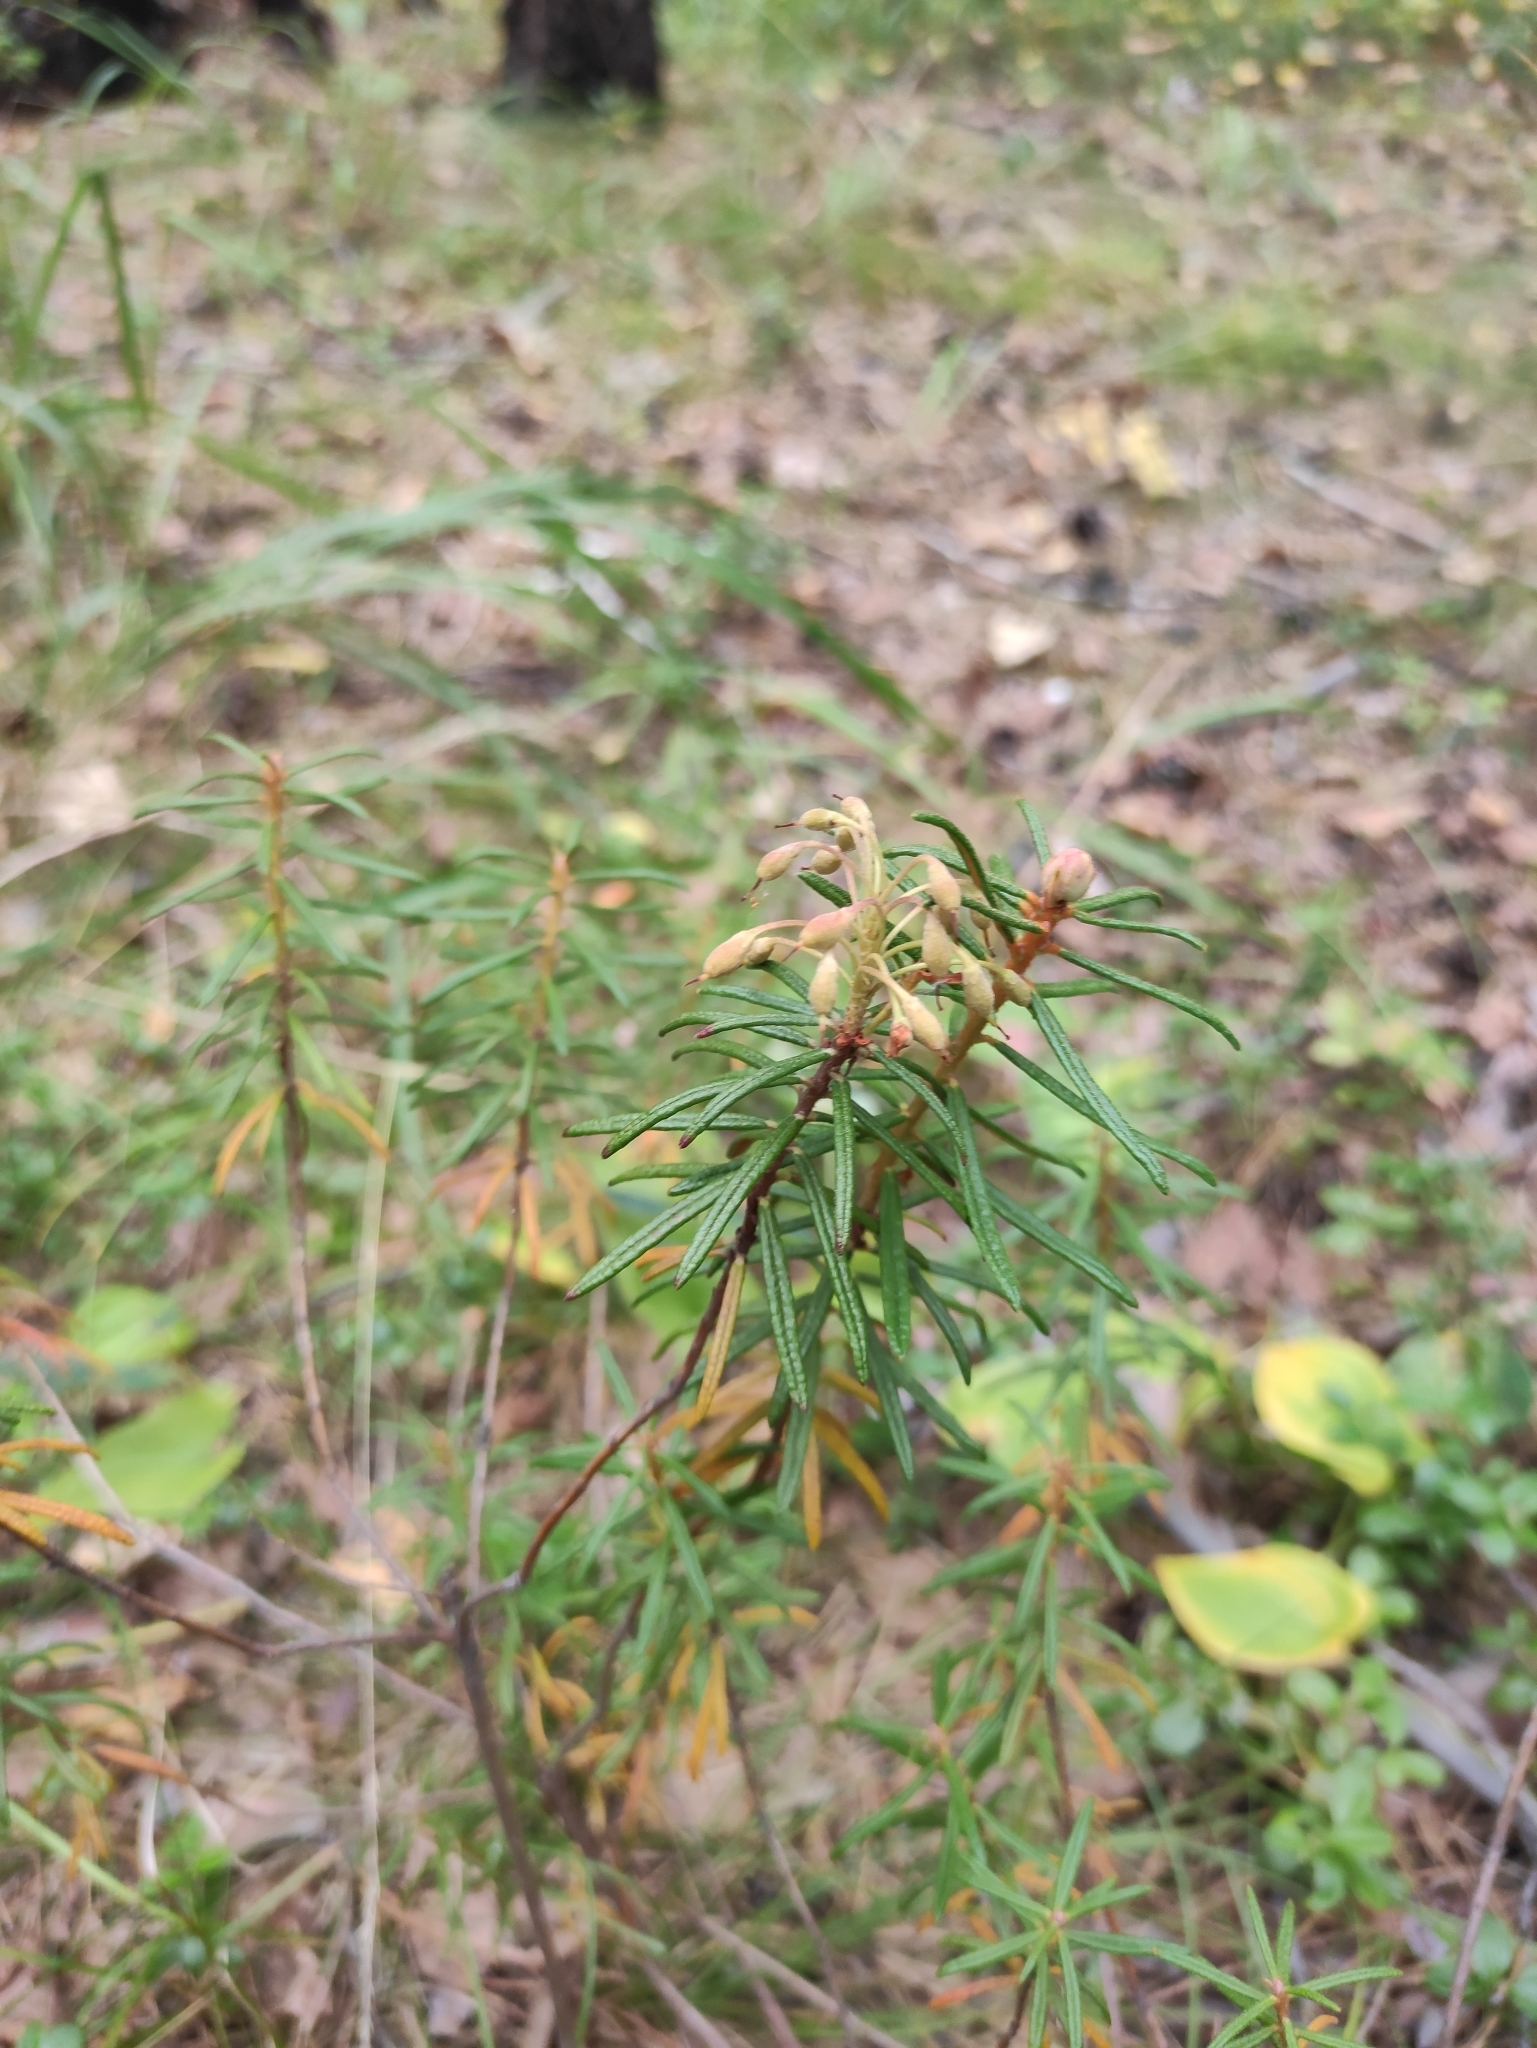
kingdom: Plantae
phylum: Tracheophyta
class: Magnoliopsida
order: Ericales
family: Ericaceae
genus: Rhododendron
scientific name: Rhododendron tomentosum
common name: Marsh labrador tea
